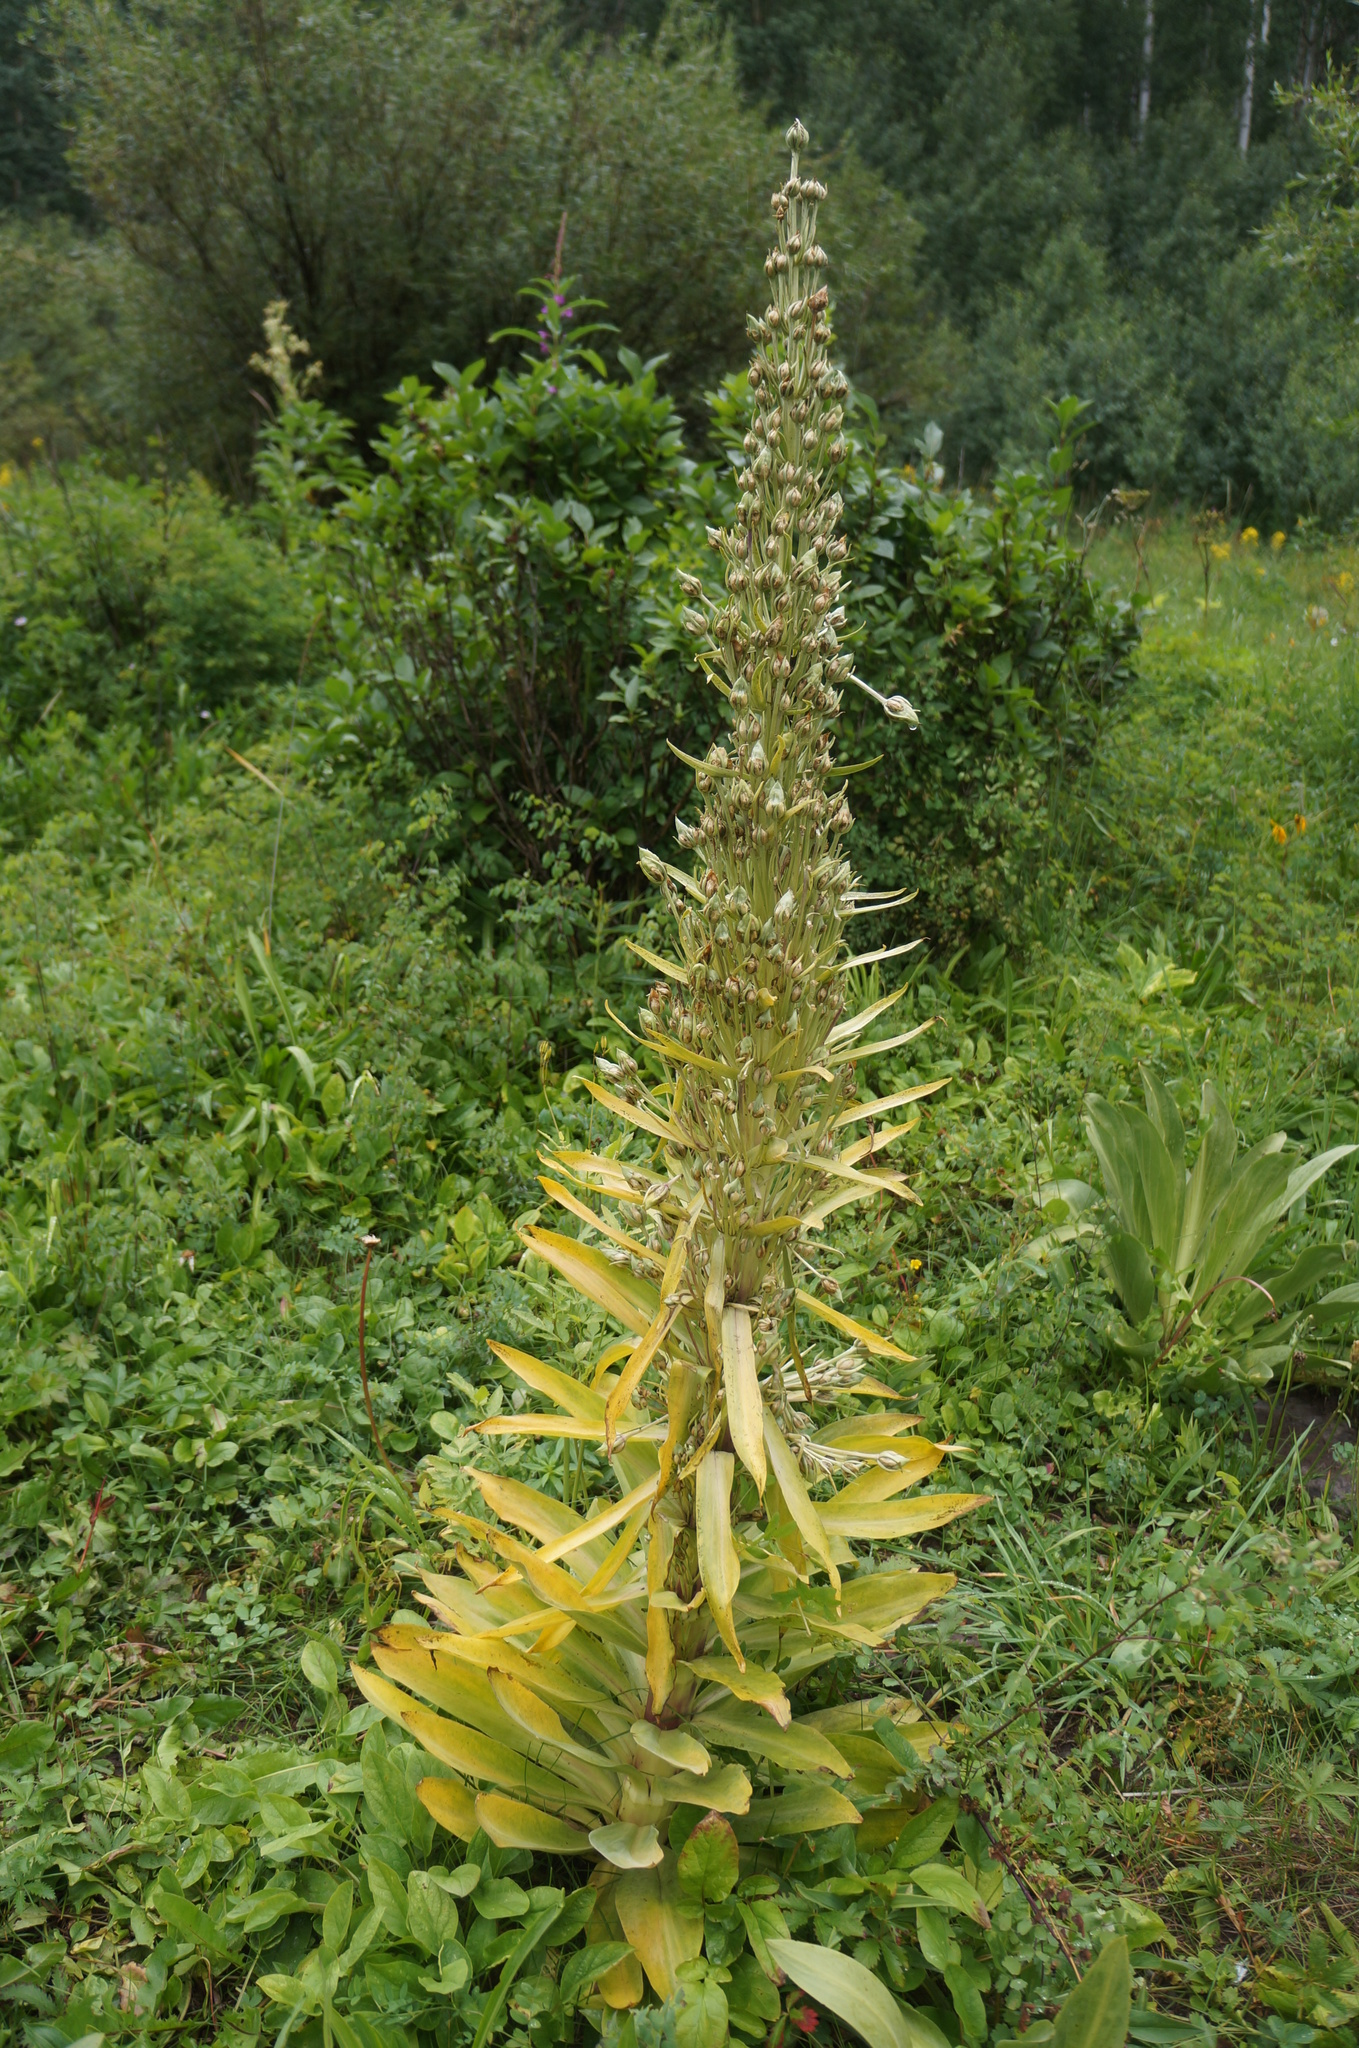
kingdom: Plantae
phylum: Tracheophyta
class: Magnoliopsida
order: Gentianales
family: Gentianaceae
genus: Frasera
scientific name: Frasera speciosa
